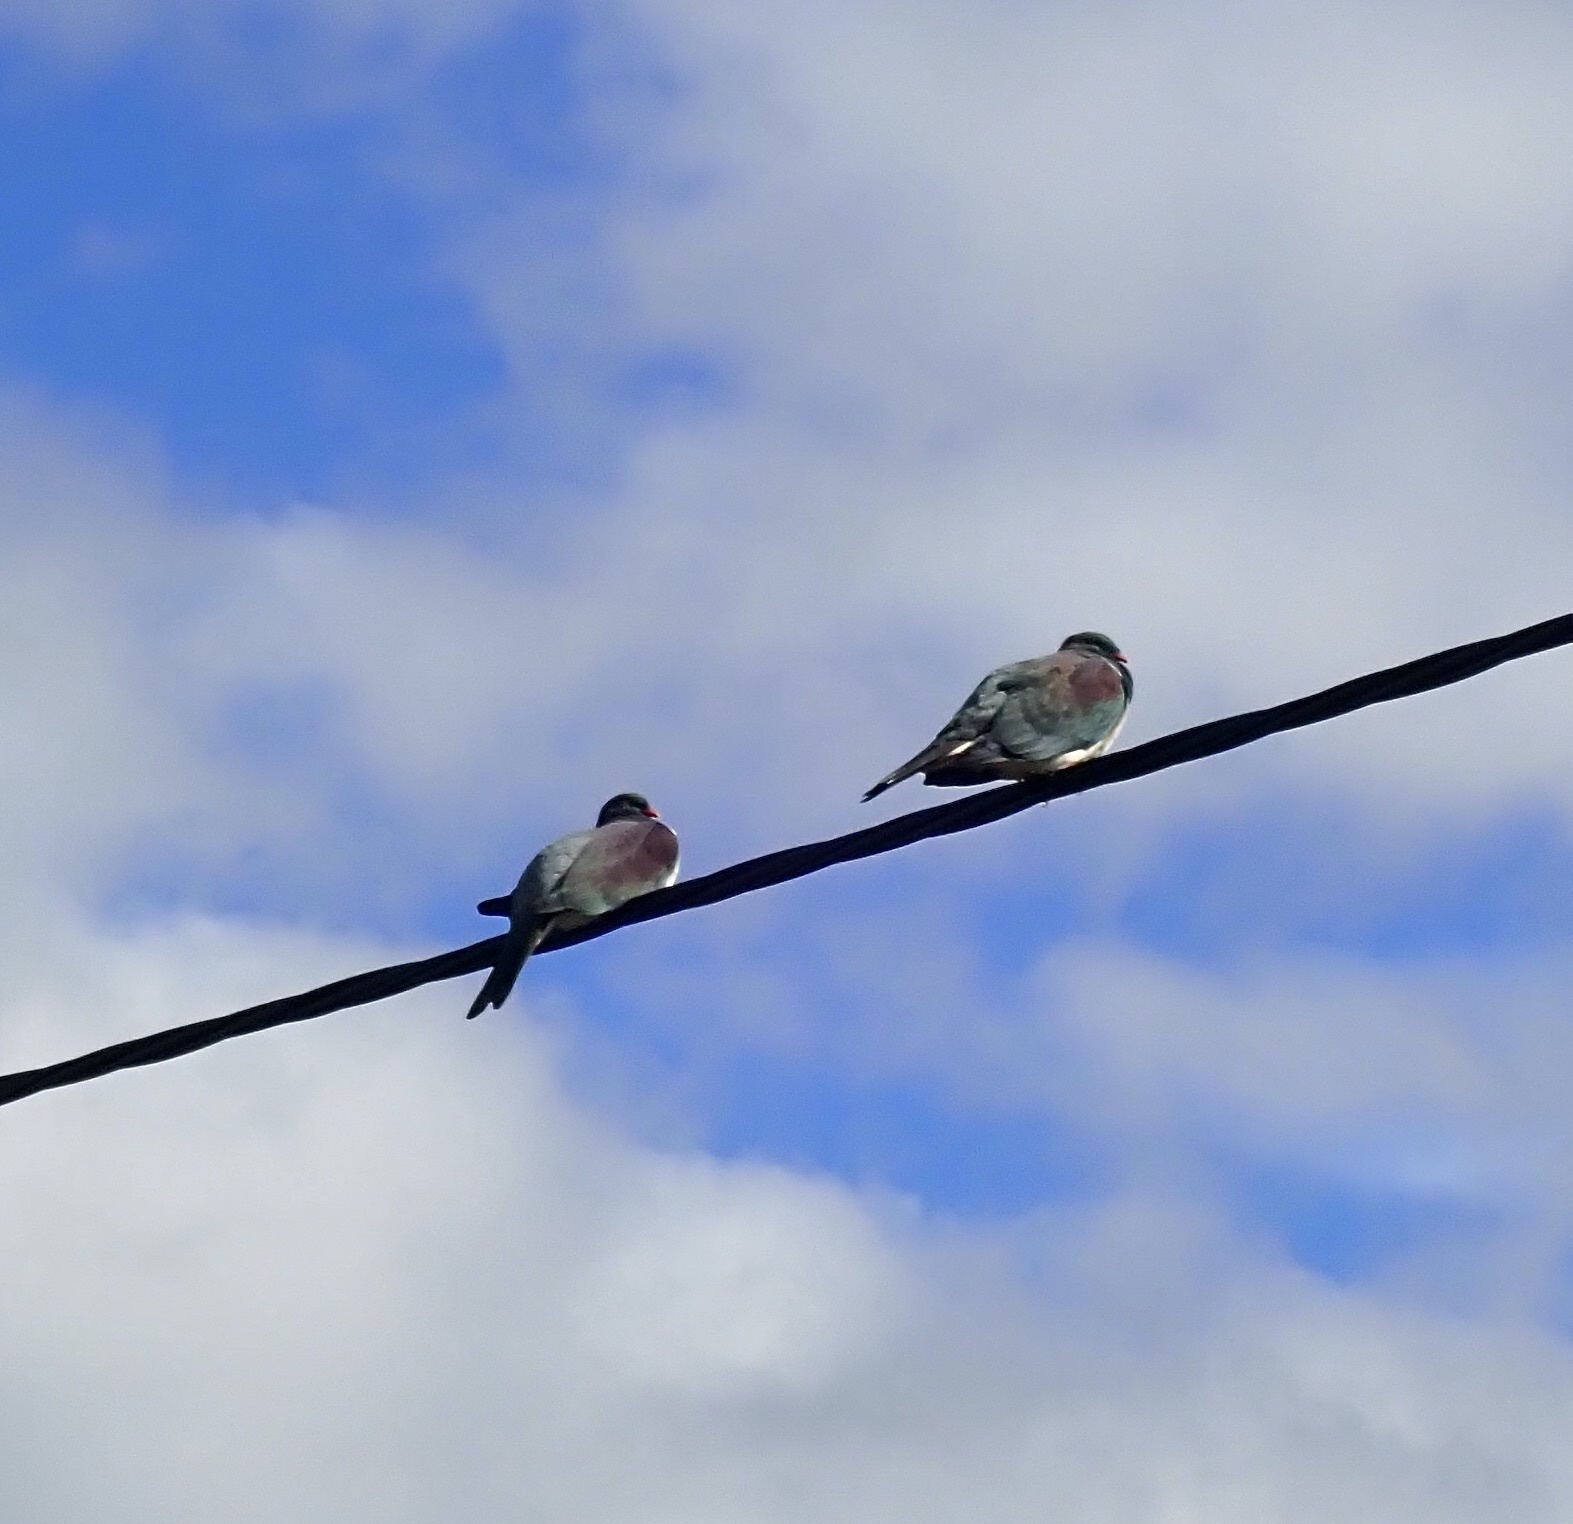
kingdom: Animalia
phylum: Chordata
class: Aves
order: Columbiformes
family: Columbidae
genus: Hemiphaga
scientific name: Hemiphaga novaeseelandiae
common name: New zealand pigeon
